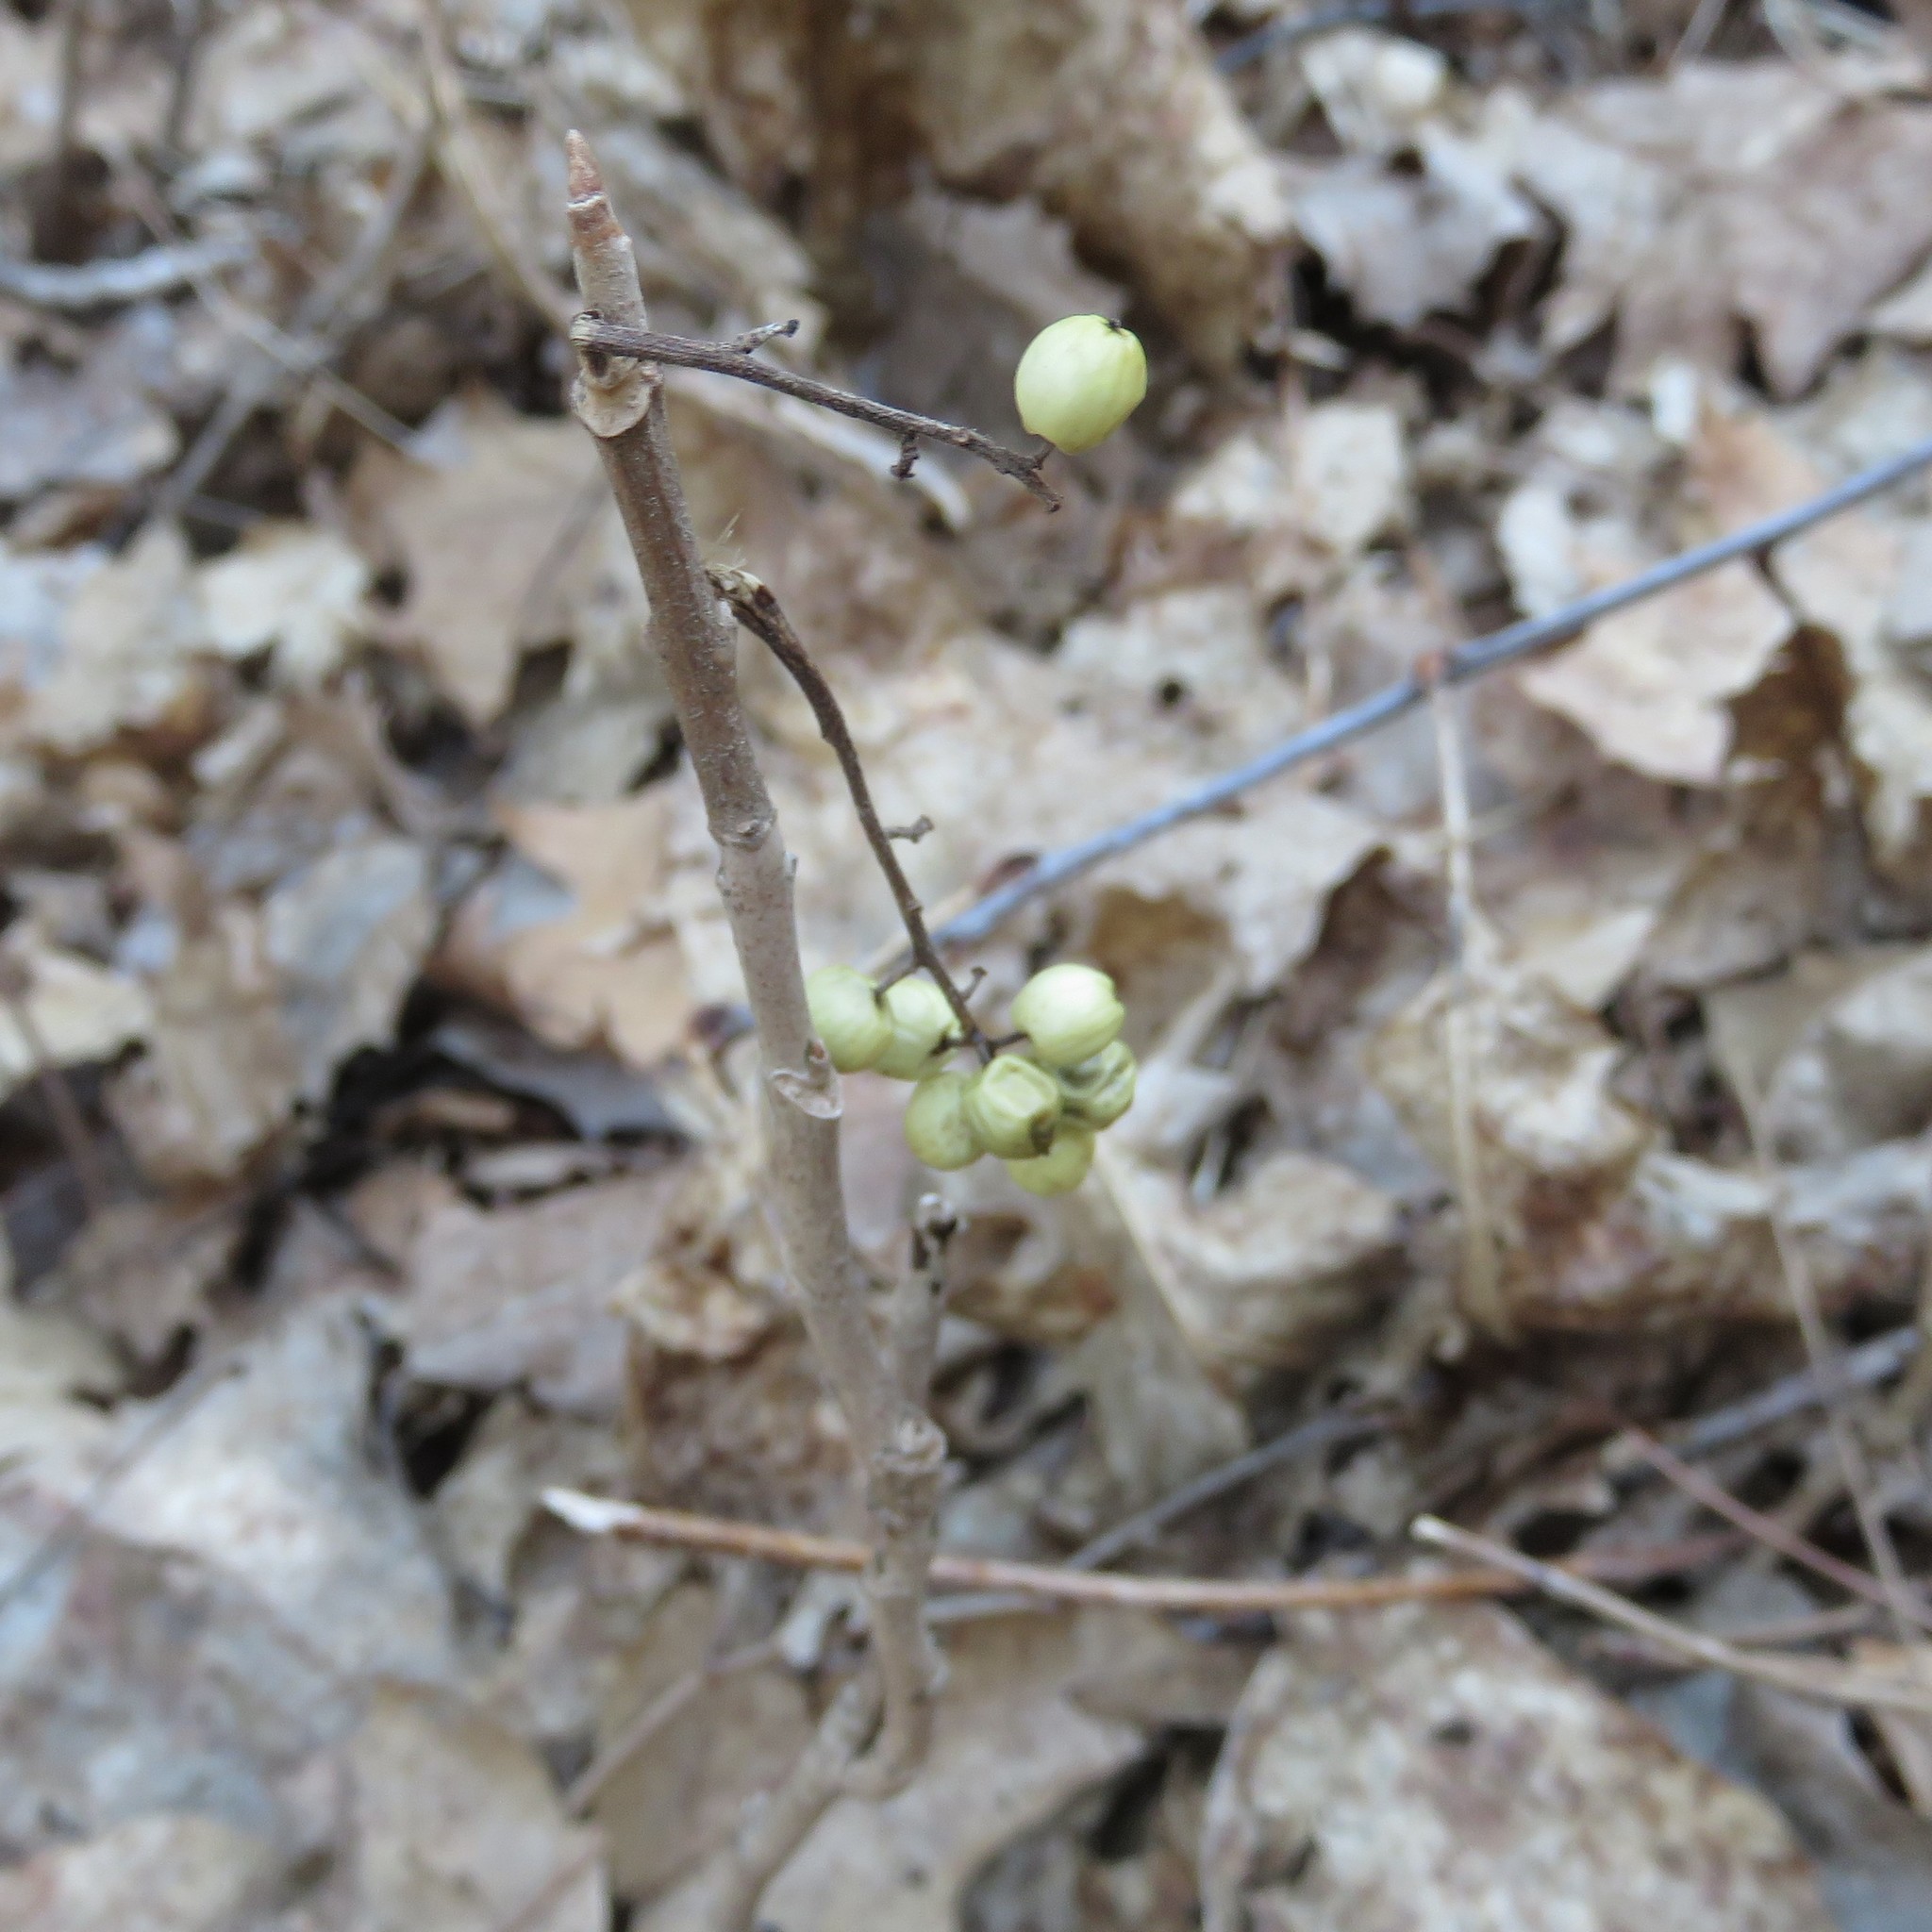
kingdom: Plantae
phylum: Tracheophyta
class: Magnoliopsida
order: Sapindales
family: Anacardiaceae
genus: Toxicodendron
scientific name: Toxicodendron rydbergii
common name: Rydberg's poison-ivy
